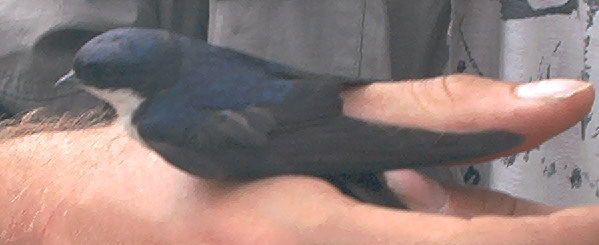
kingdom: Animalia
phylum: Chordata
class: Aves
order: Passeriformes
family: Hirundinidae
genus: Notiochelidon
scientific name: Notiochelidon cyanoleuca
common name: Blue-and-white swallow
